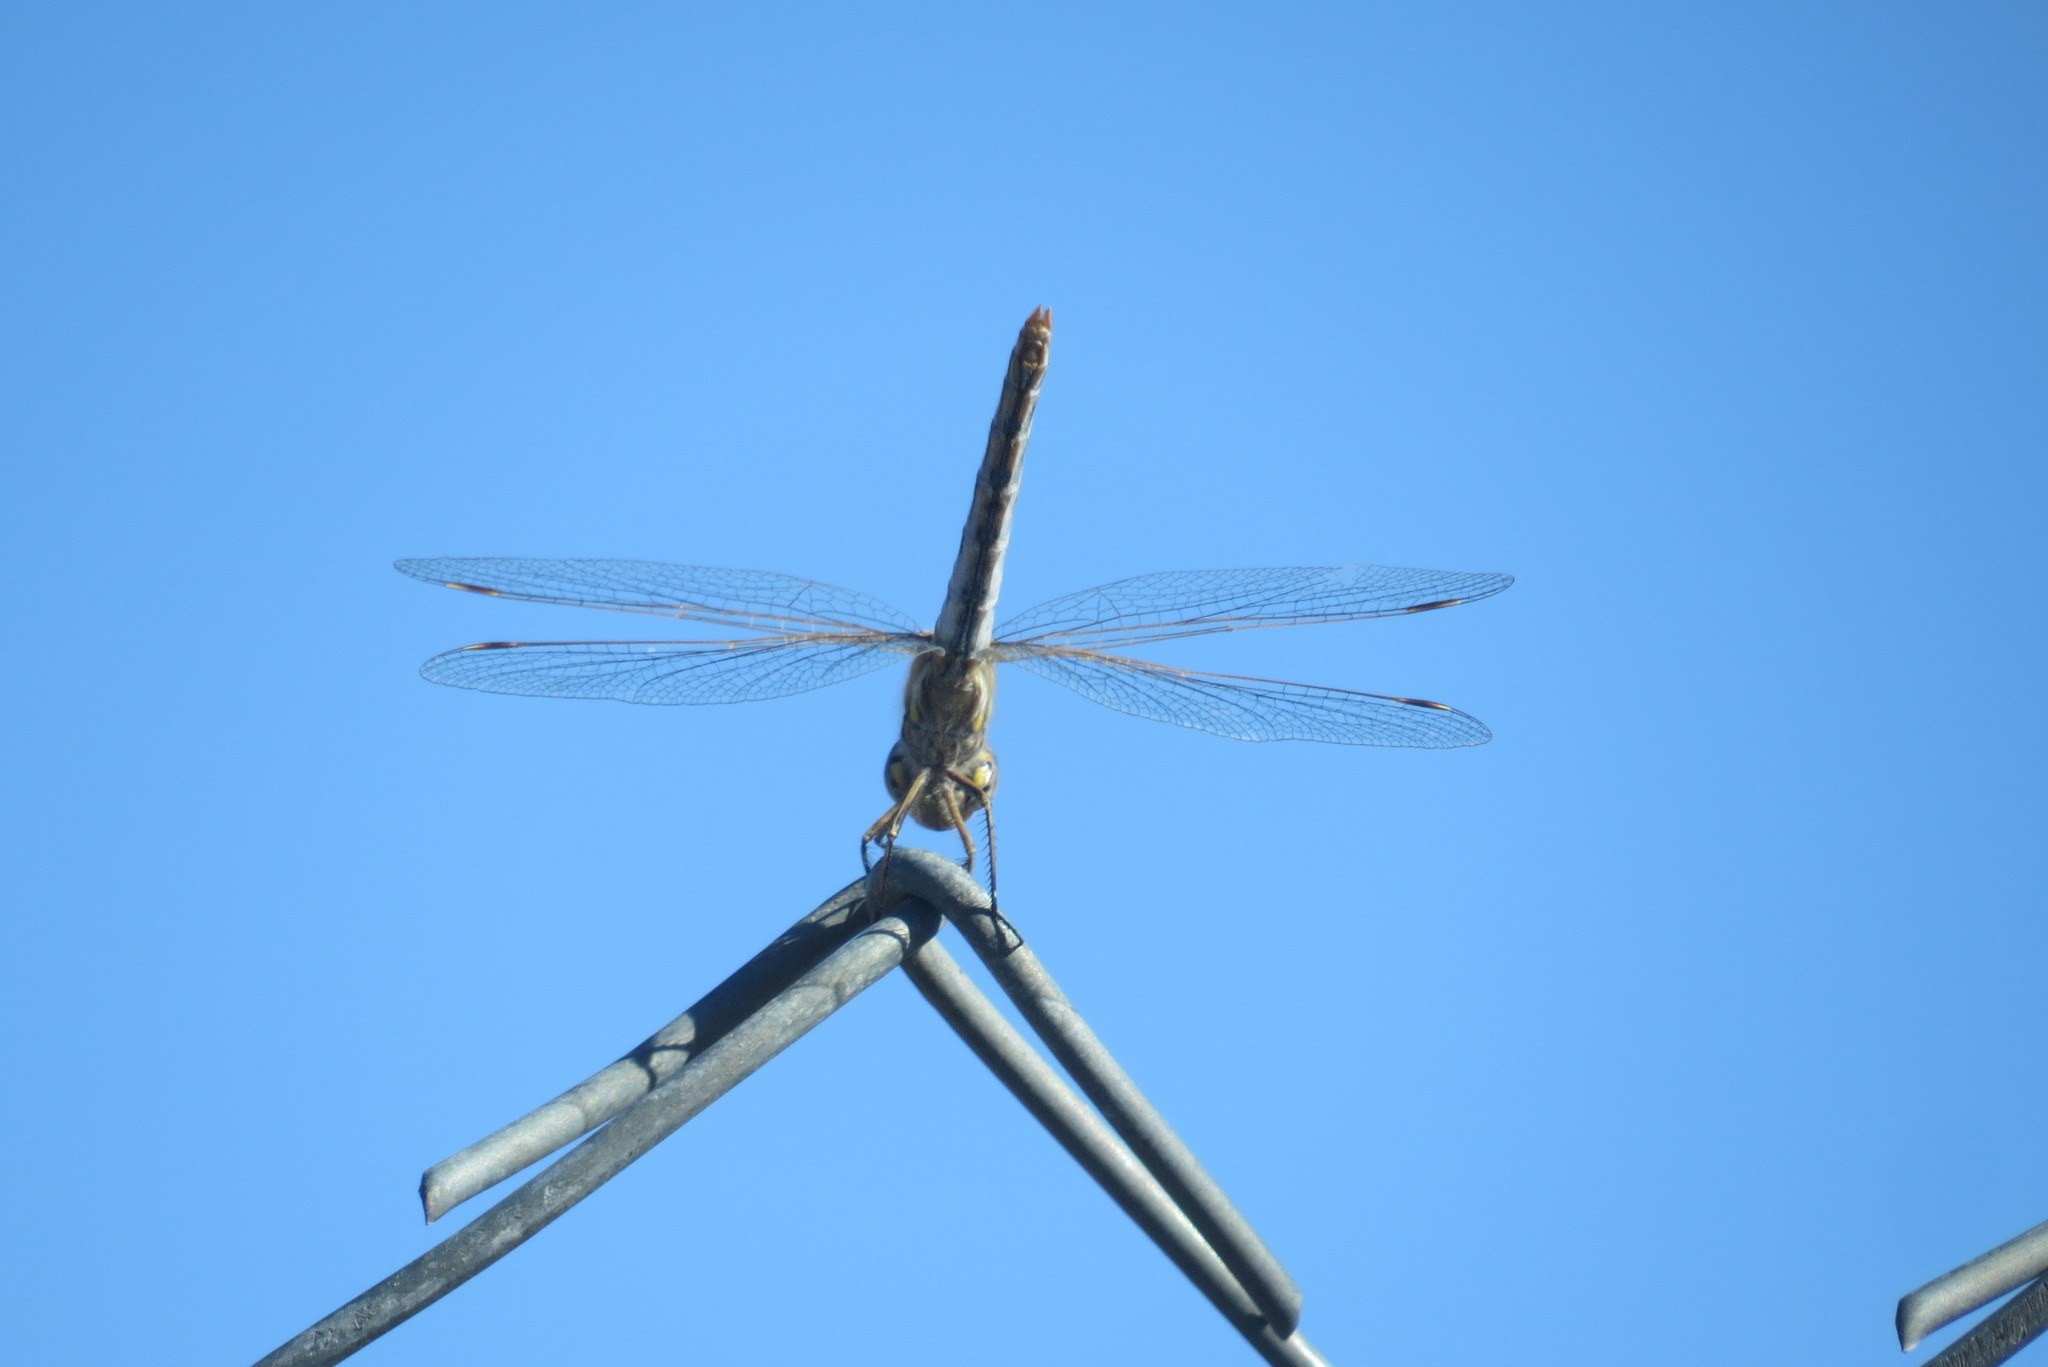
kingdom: Animalia
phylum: Arthropoda
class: Insecta
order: Odonata
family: Libellulidae
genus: Sympetrum
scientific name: Sympetrum corruptum
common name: Variegated meadowhawk
